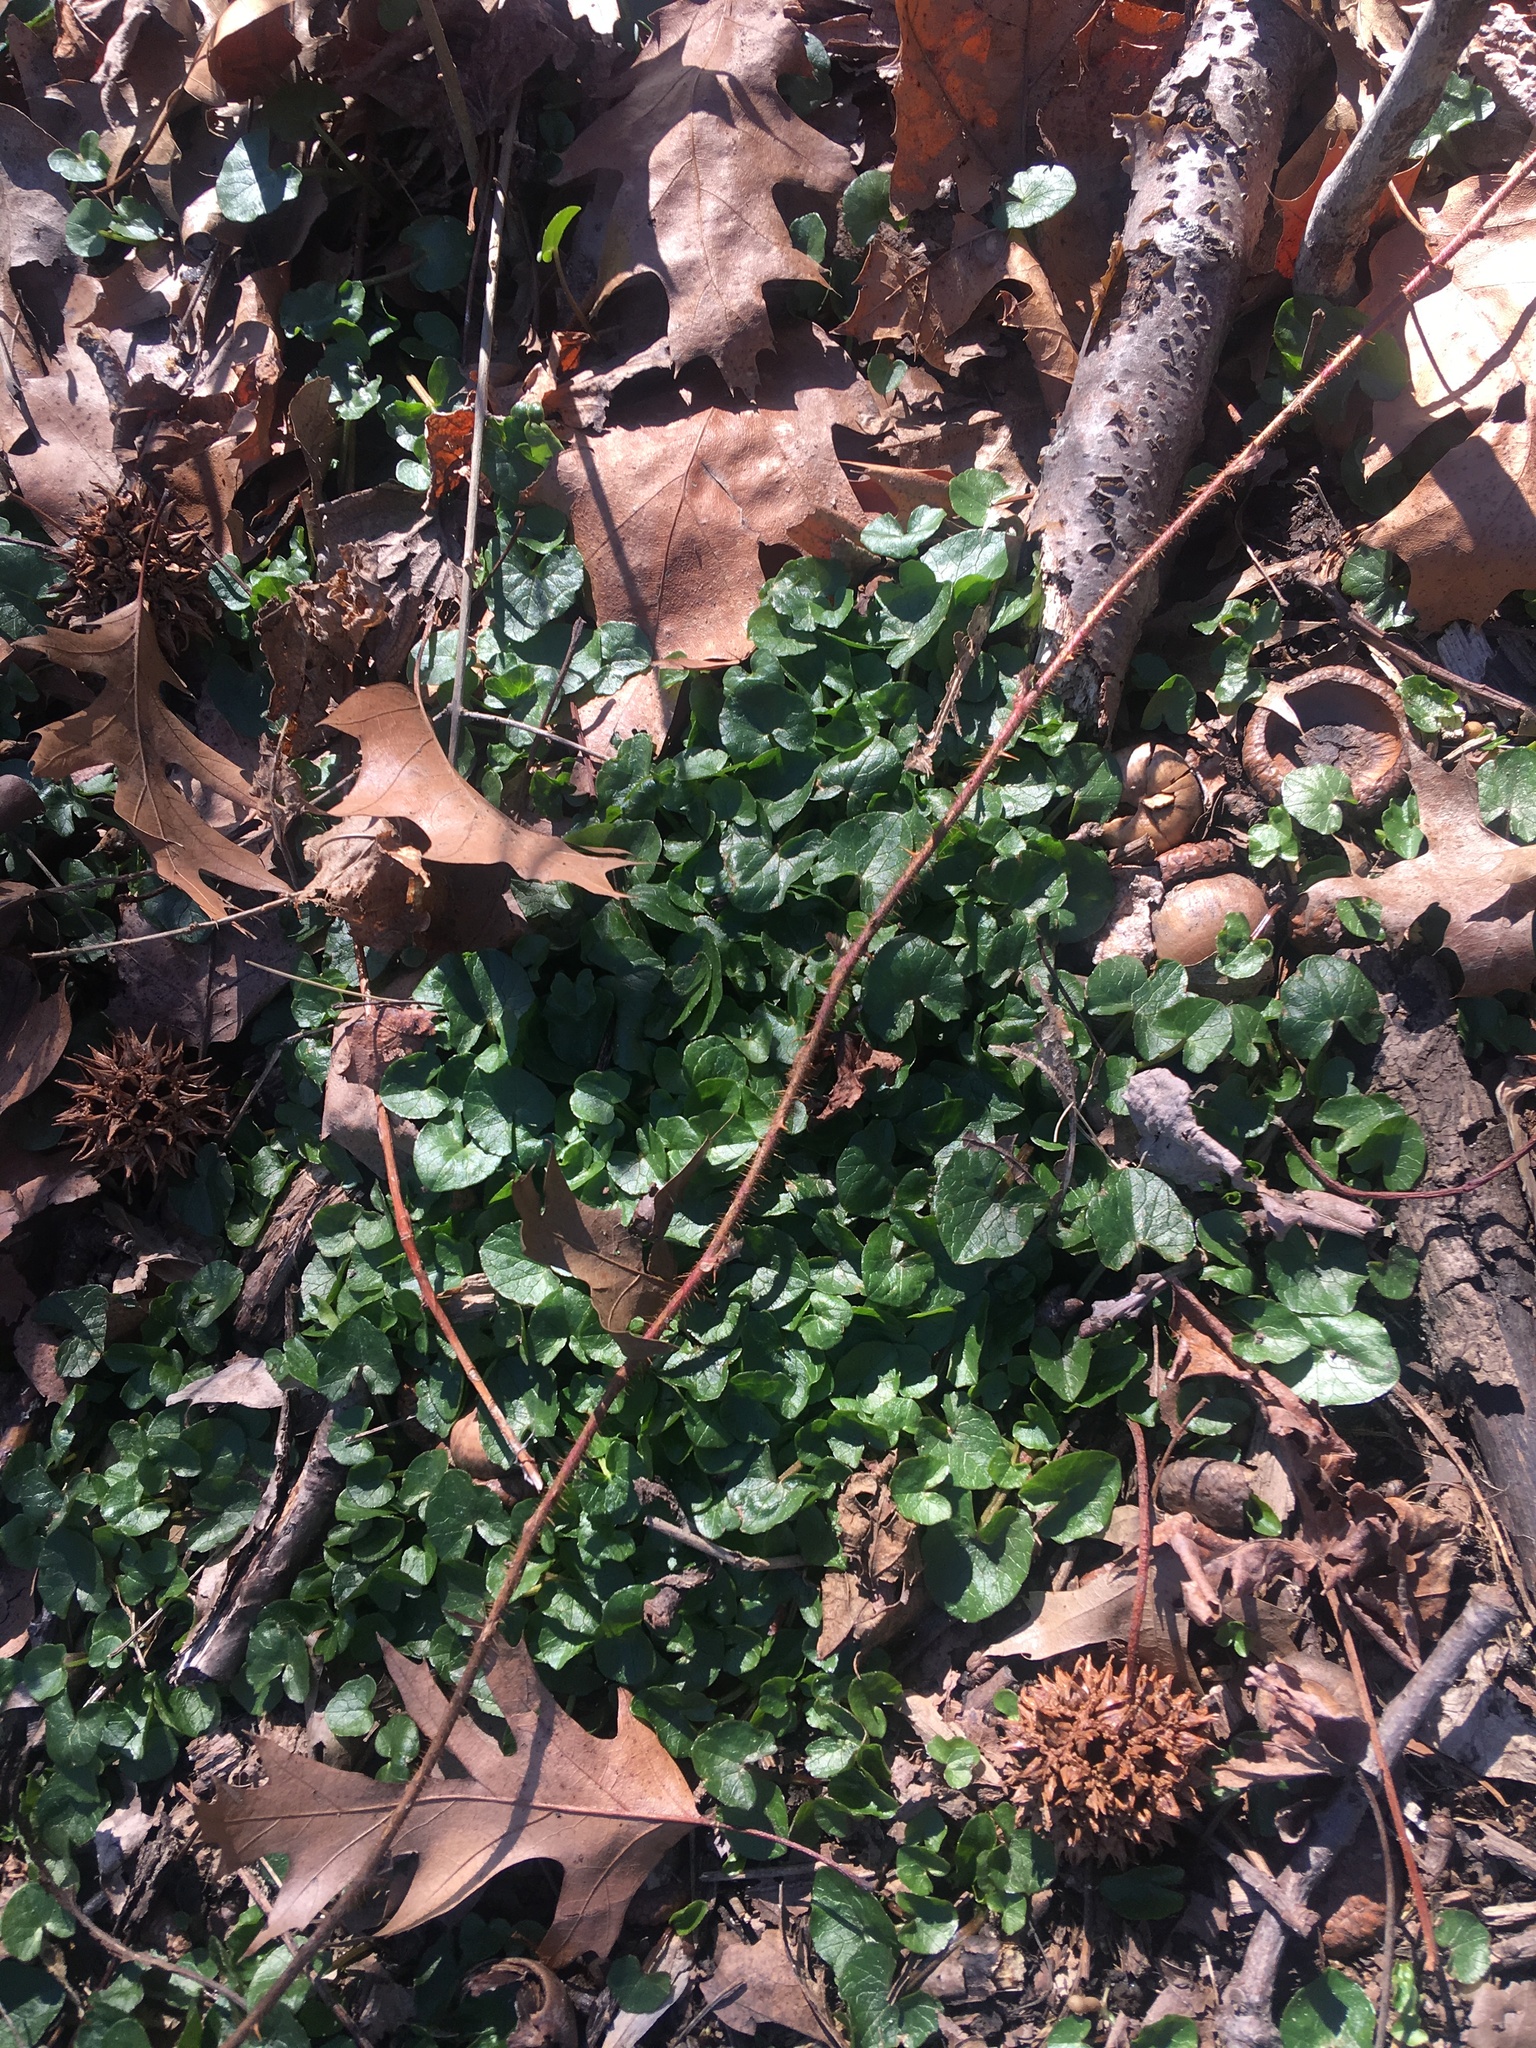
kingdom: Plantae
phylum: Tracheophyta
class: Magnoliopsida
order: Ranunculales
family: Ranunculaceae
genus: Ficaria
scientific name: Ficaria verna
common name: Lesser celandine
